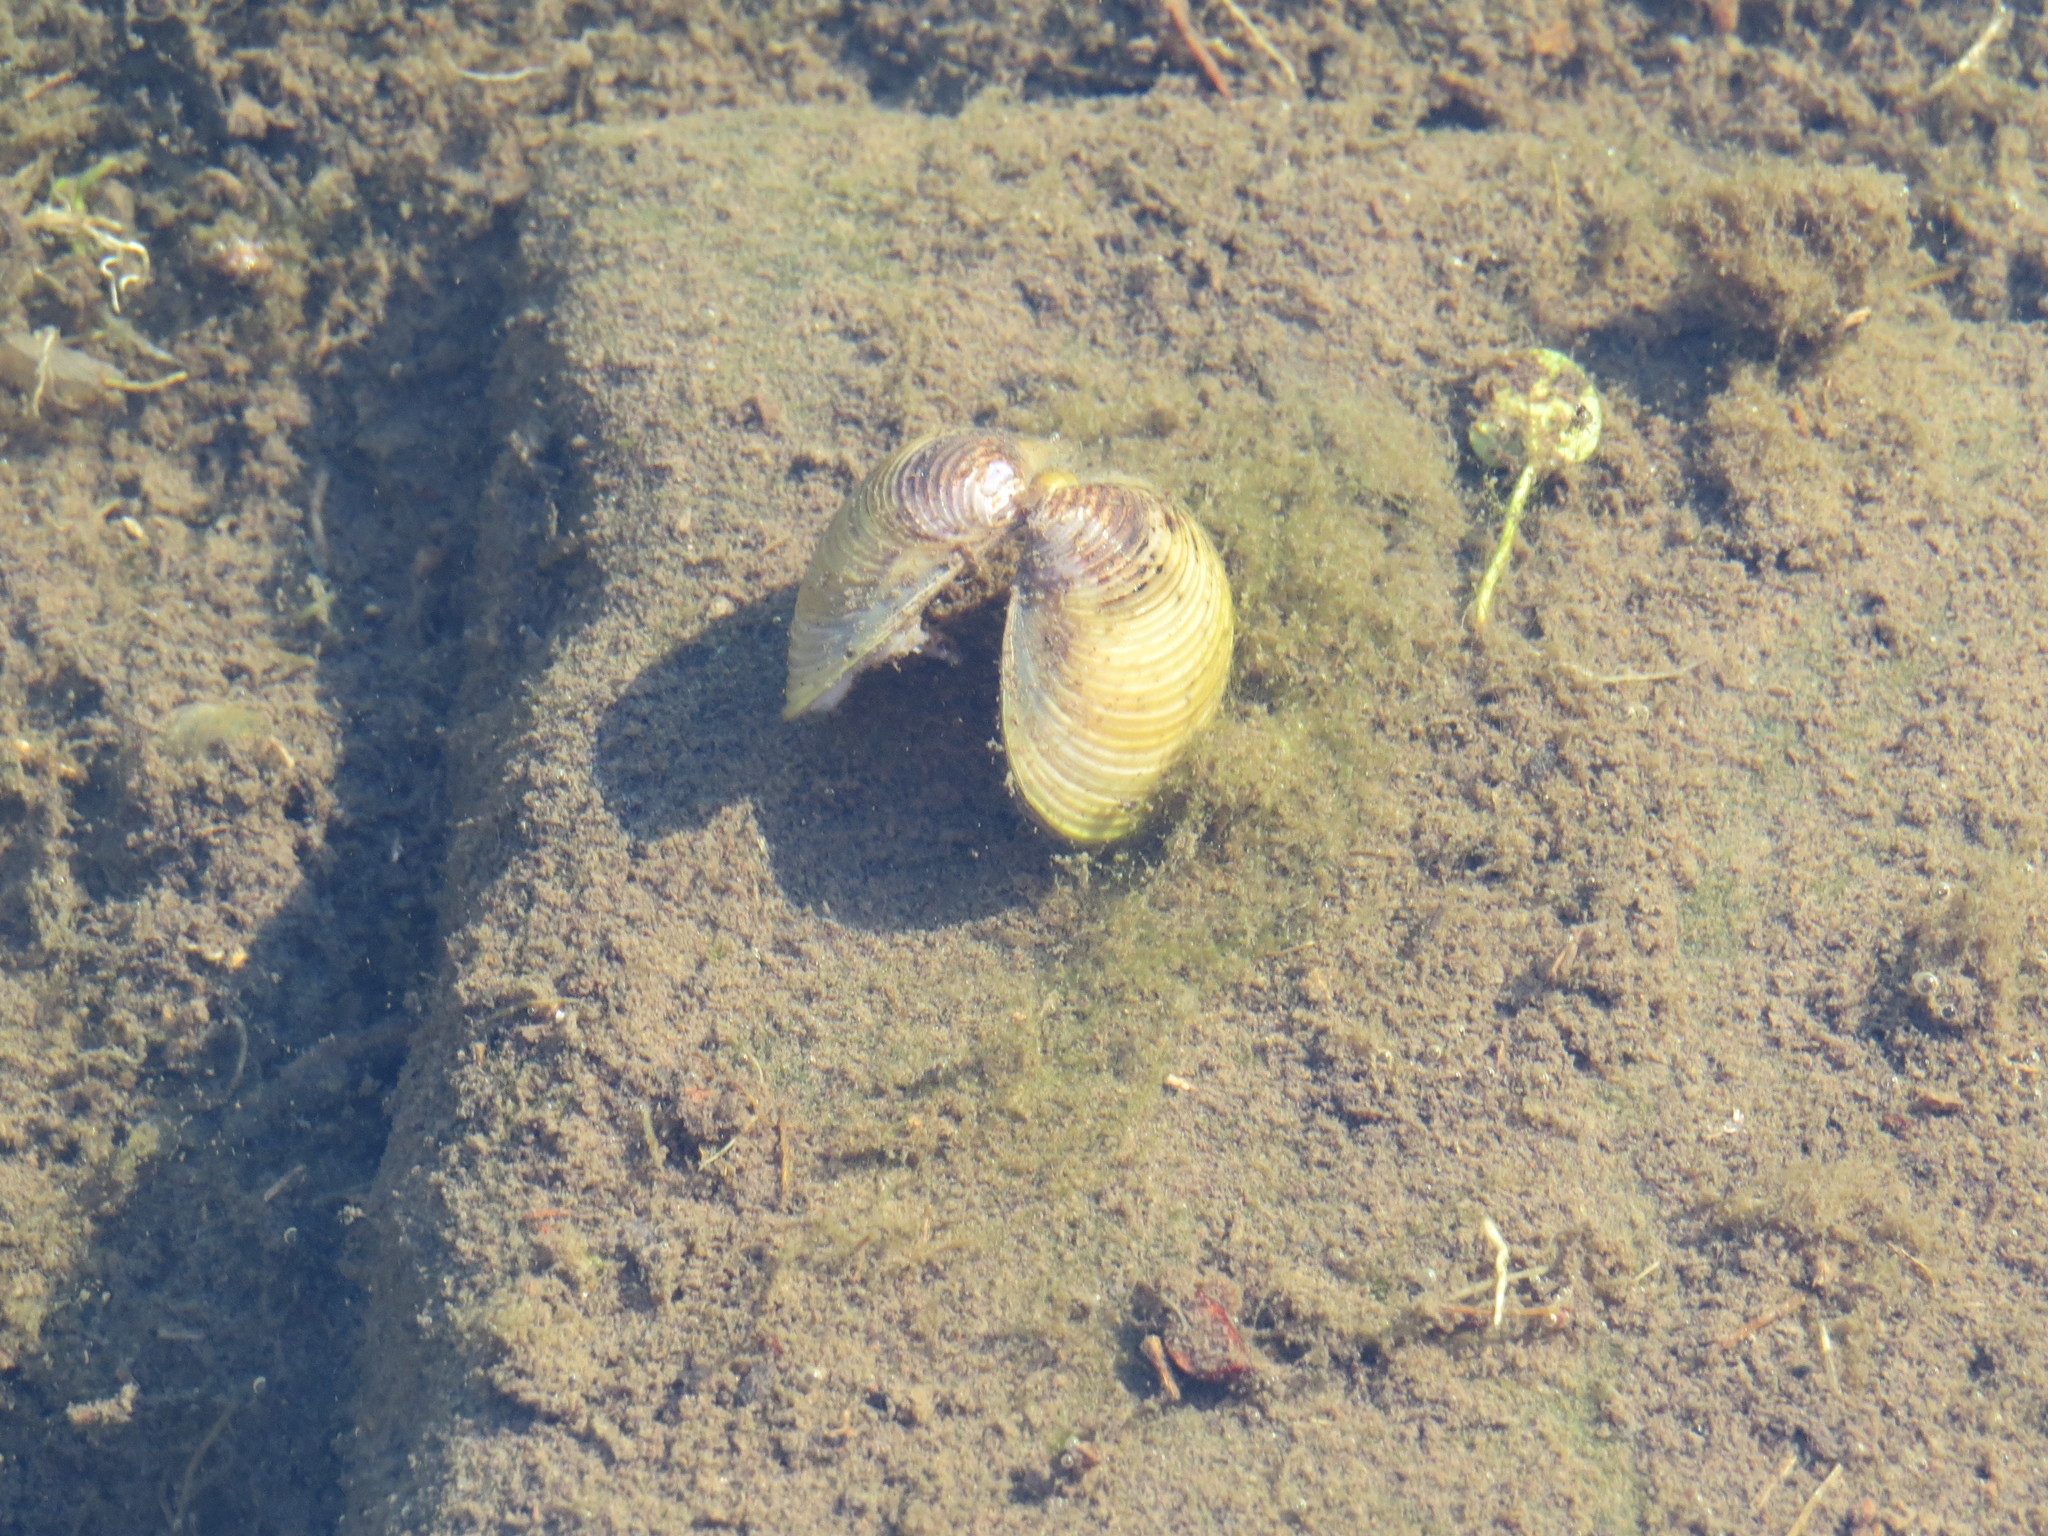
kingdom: Animalia
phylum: Mollusca
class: Bivalvia
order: Venerida
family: Cyrenidae
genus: Corbicula
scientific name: Corbicula fluminea
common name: Asian clam
